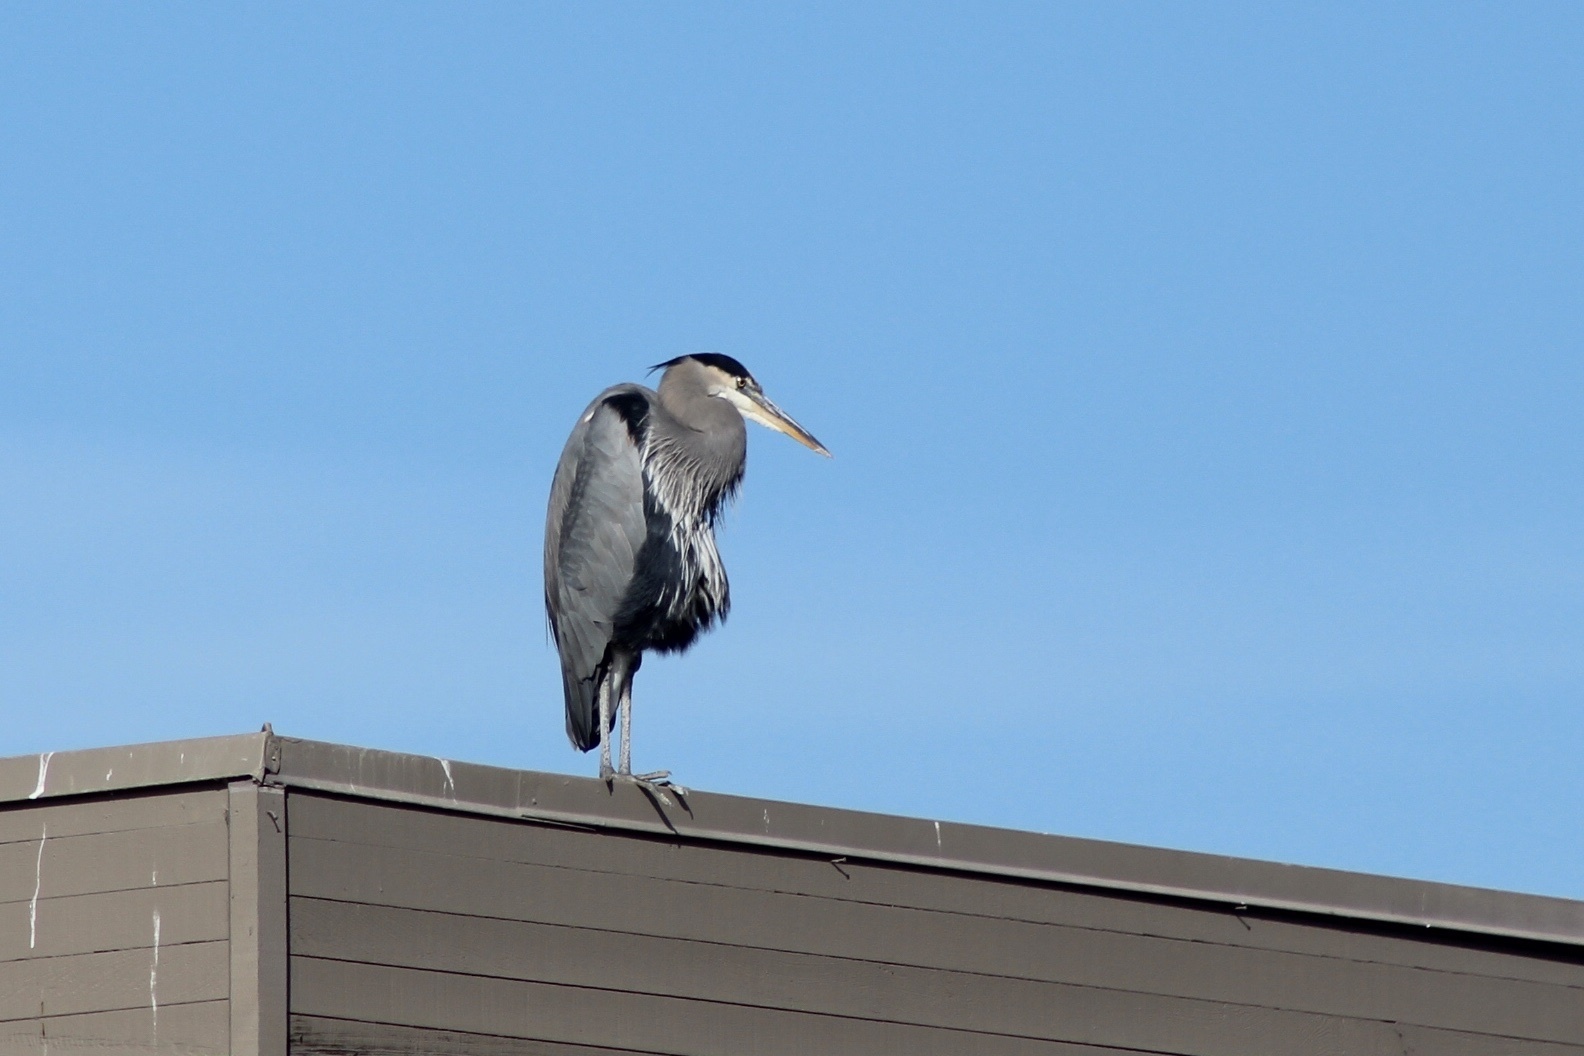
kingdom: Animalia
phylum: Chordata
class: Aves
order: Pelecaniformes
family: Ardeidae
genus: Ardea
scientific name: Ardea herodias
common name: Great blue heron
